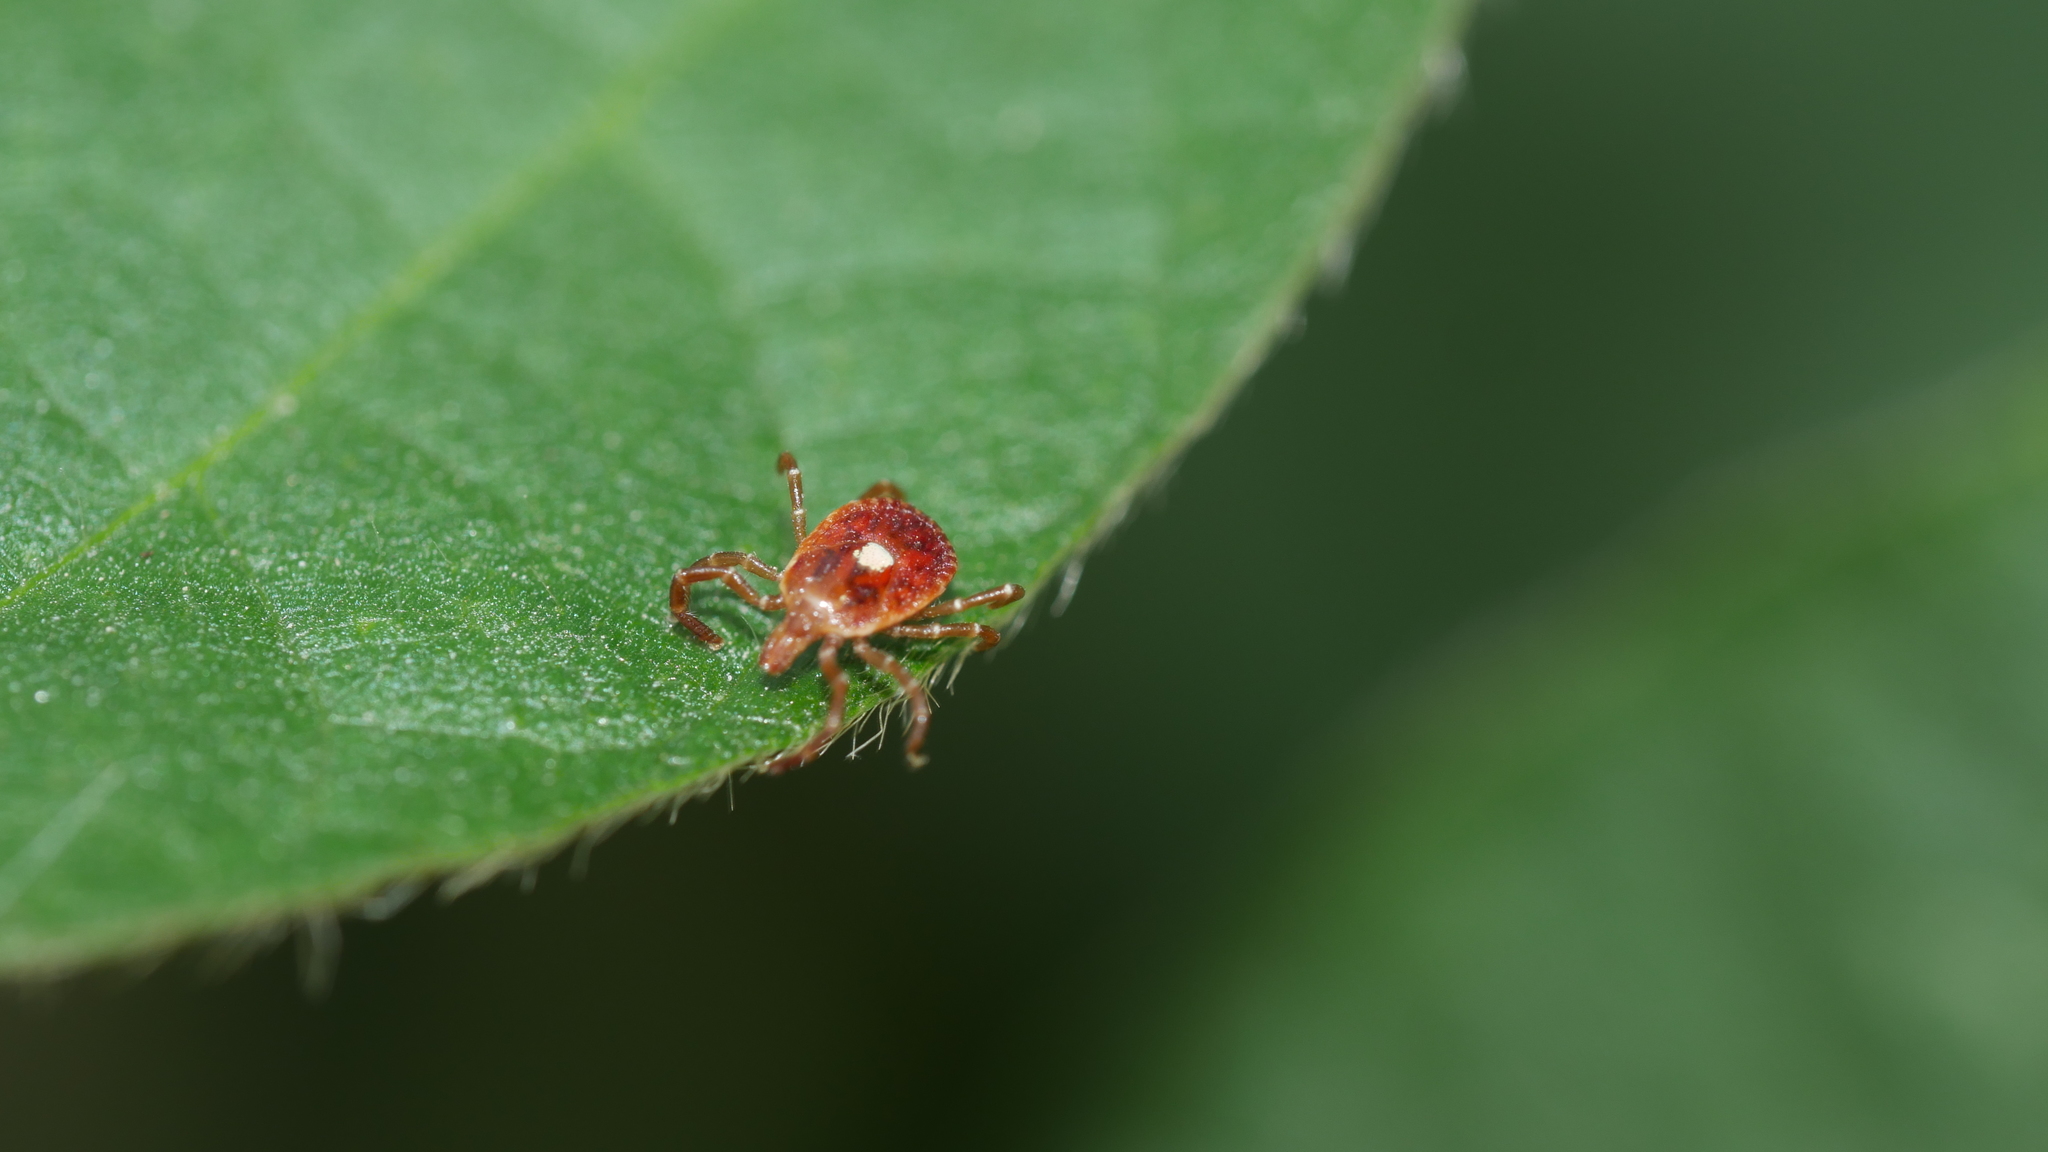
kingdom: Animalia
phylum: Arthropoda
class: Arachnida
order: Ixodida
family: Ixodidae
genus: Amblyomma
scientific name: Amblyomma americanum
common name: Lone star tick
